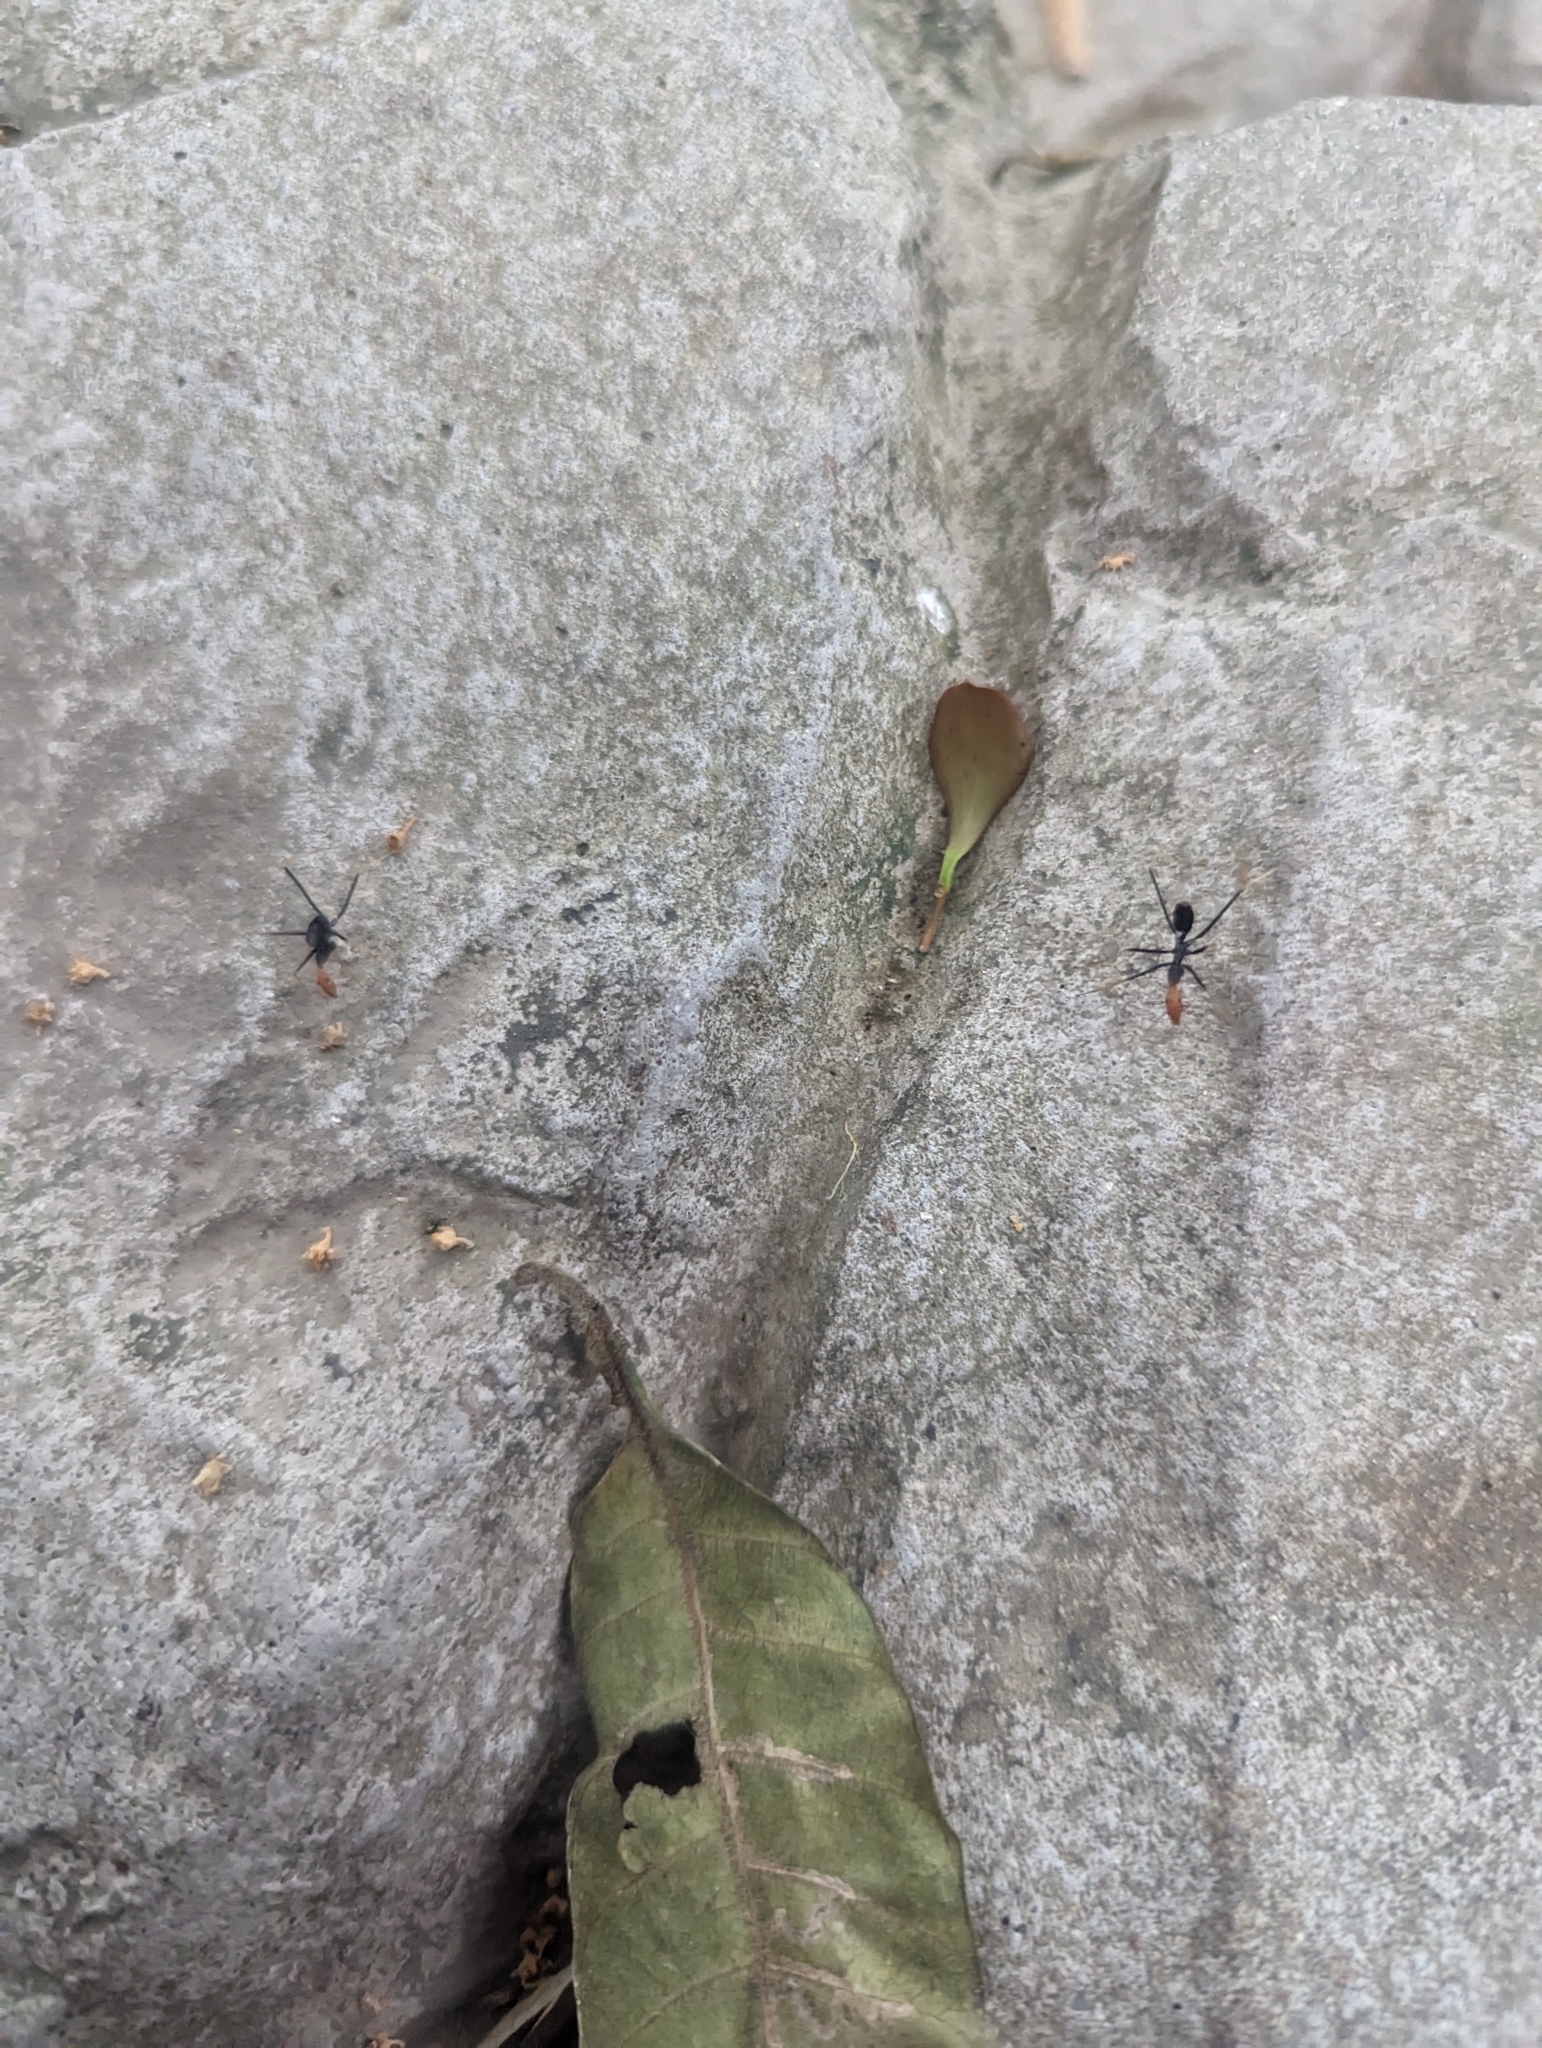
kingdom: Animalia
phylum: Arthropoda
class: Insecta
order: Hymenoptera
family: Formicidae
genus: Leptomyrmex
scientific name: Leptomyrmex ruficeps
